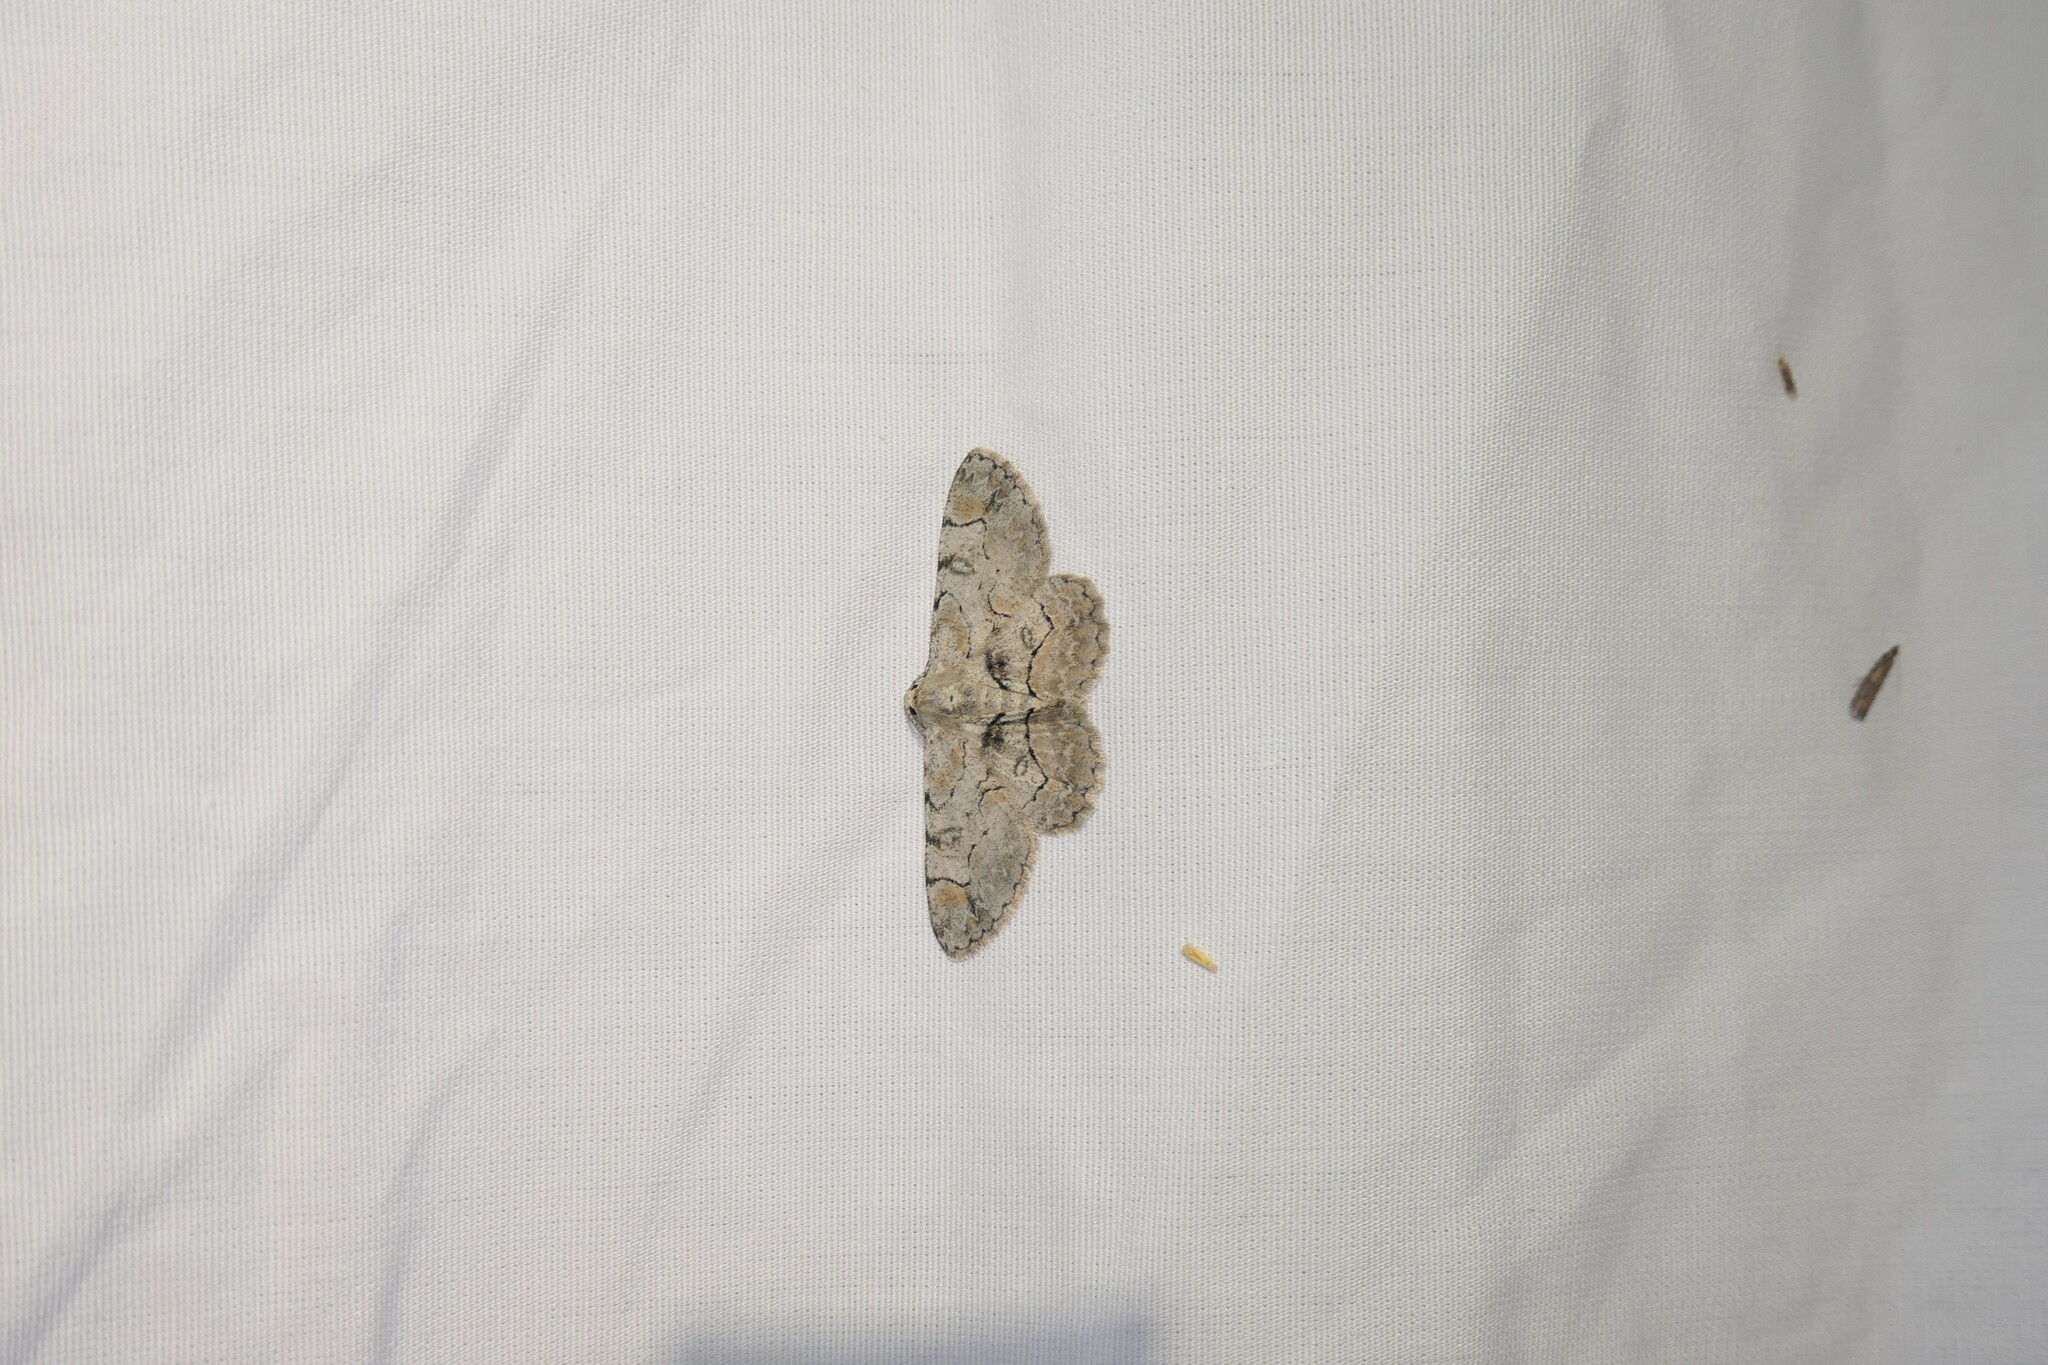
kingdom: Animalia
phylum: Arthropoda
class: Insecta
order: Lepidoptera
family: Geometridae
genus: Iridopsis
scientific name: Iridopsis larvaria
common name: Bent-line gray
